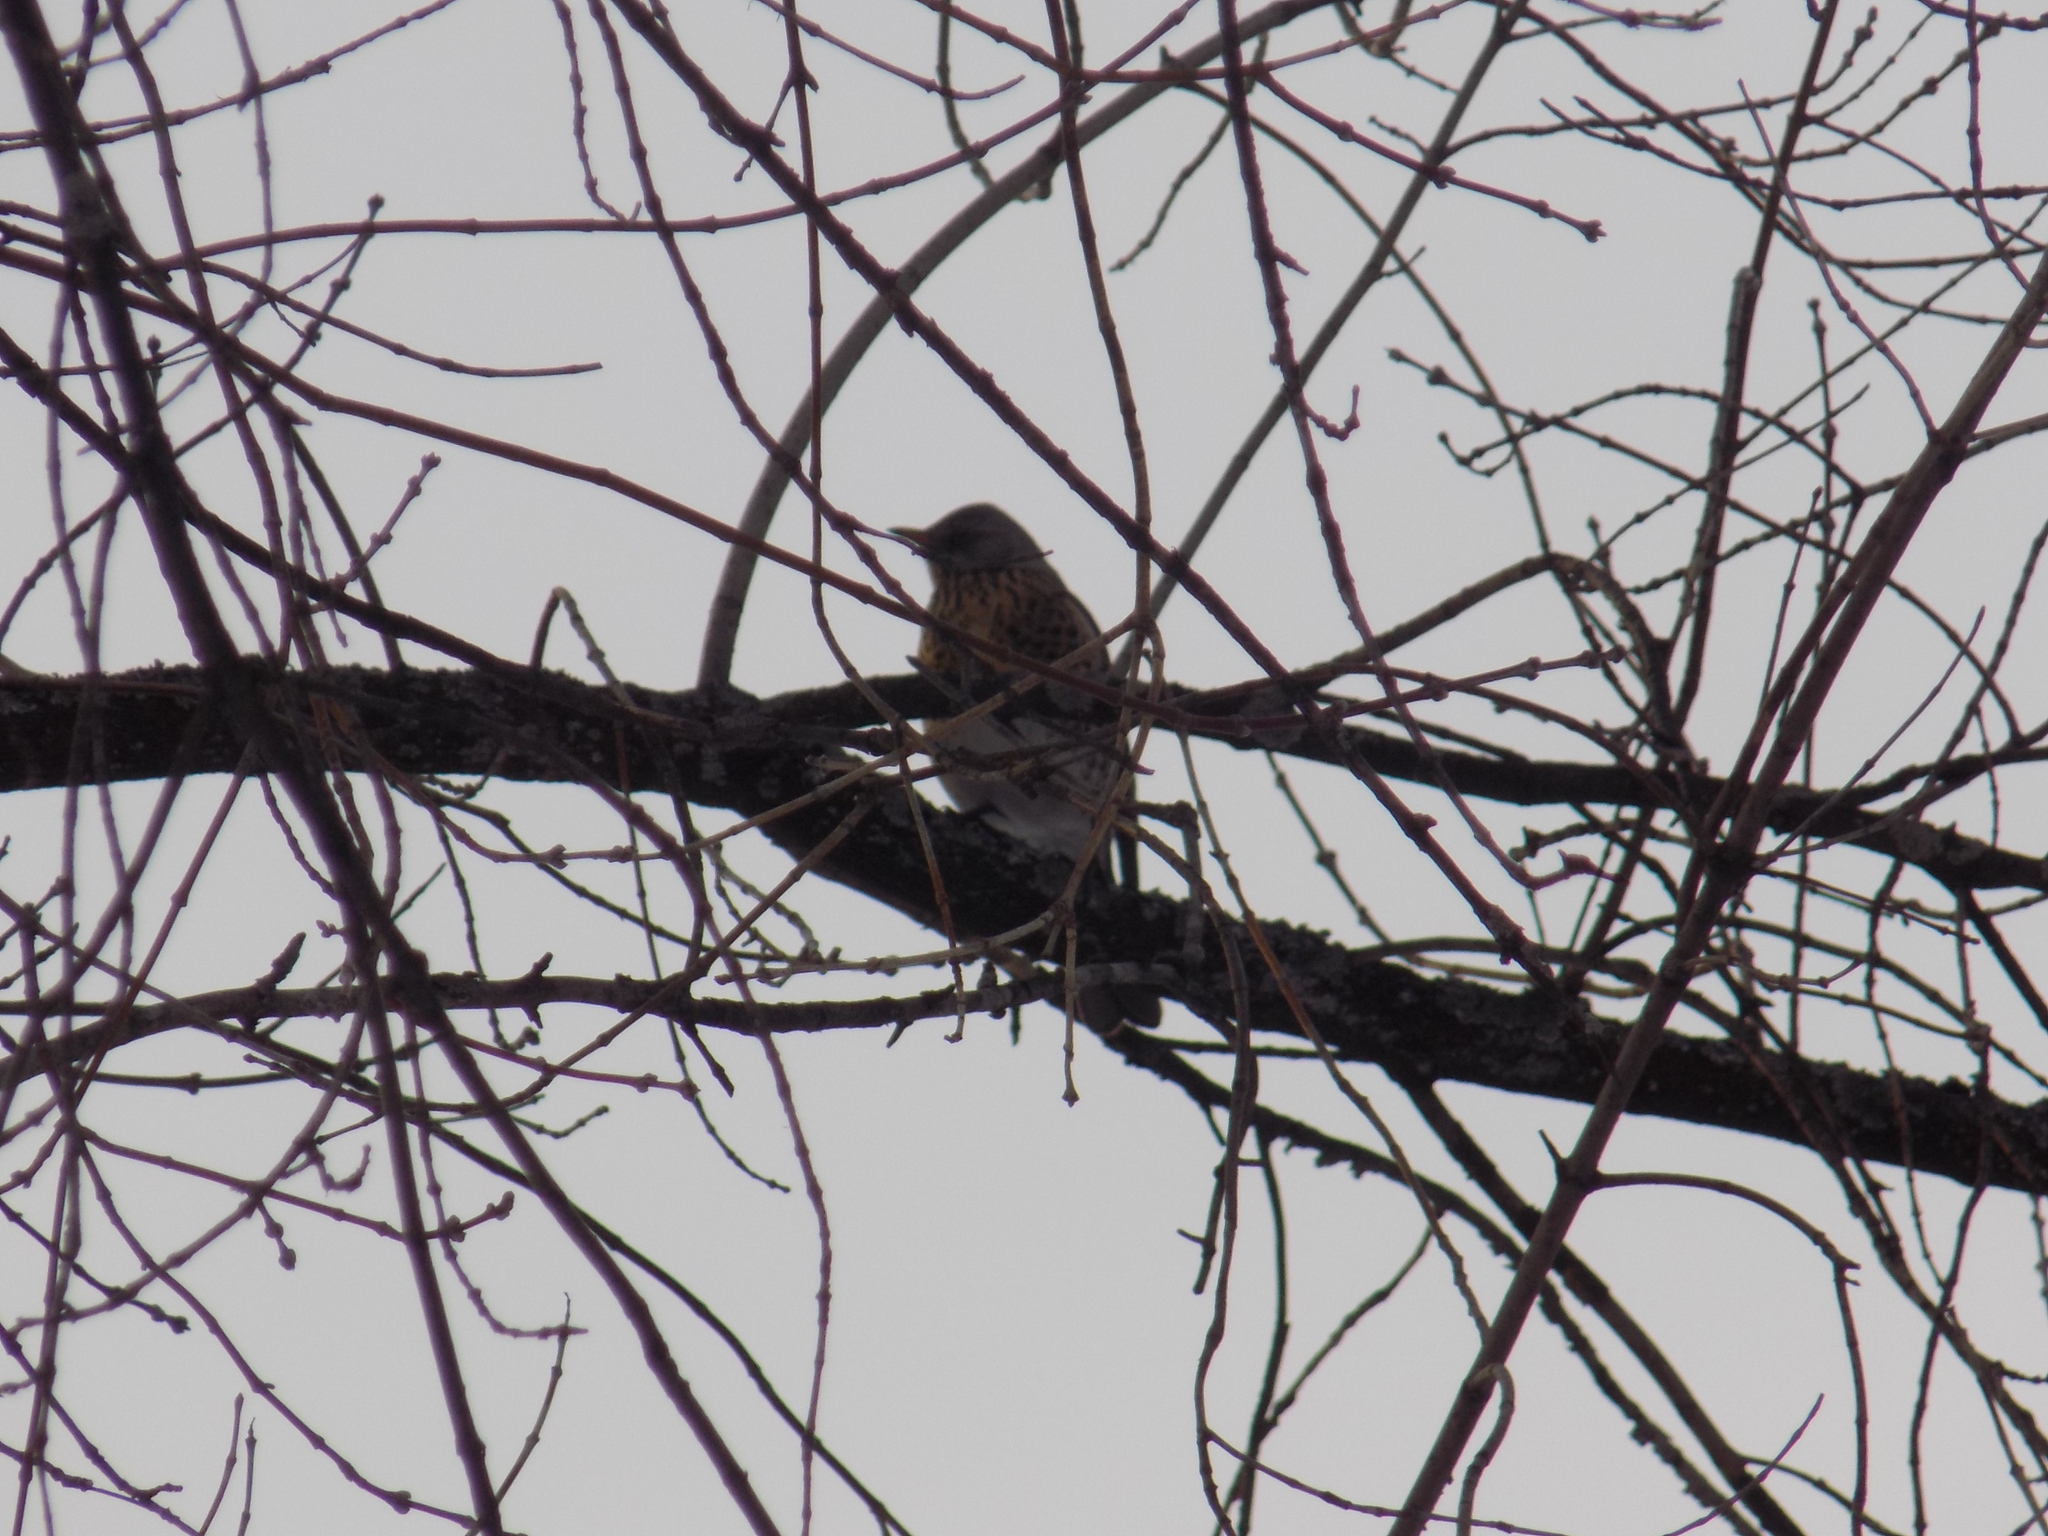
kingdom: Animalia
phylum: Chordata
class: Aves
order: Passeriformes
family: Turdidae
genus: Turdus
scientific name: Turdus pilaris
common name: Fieldfare
